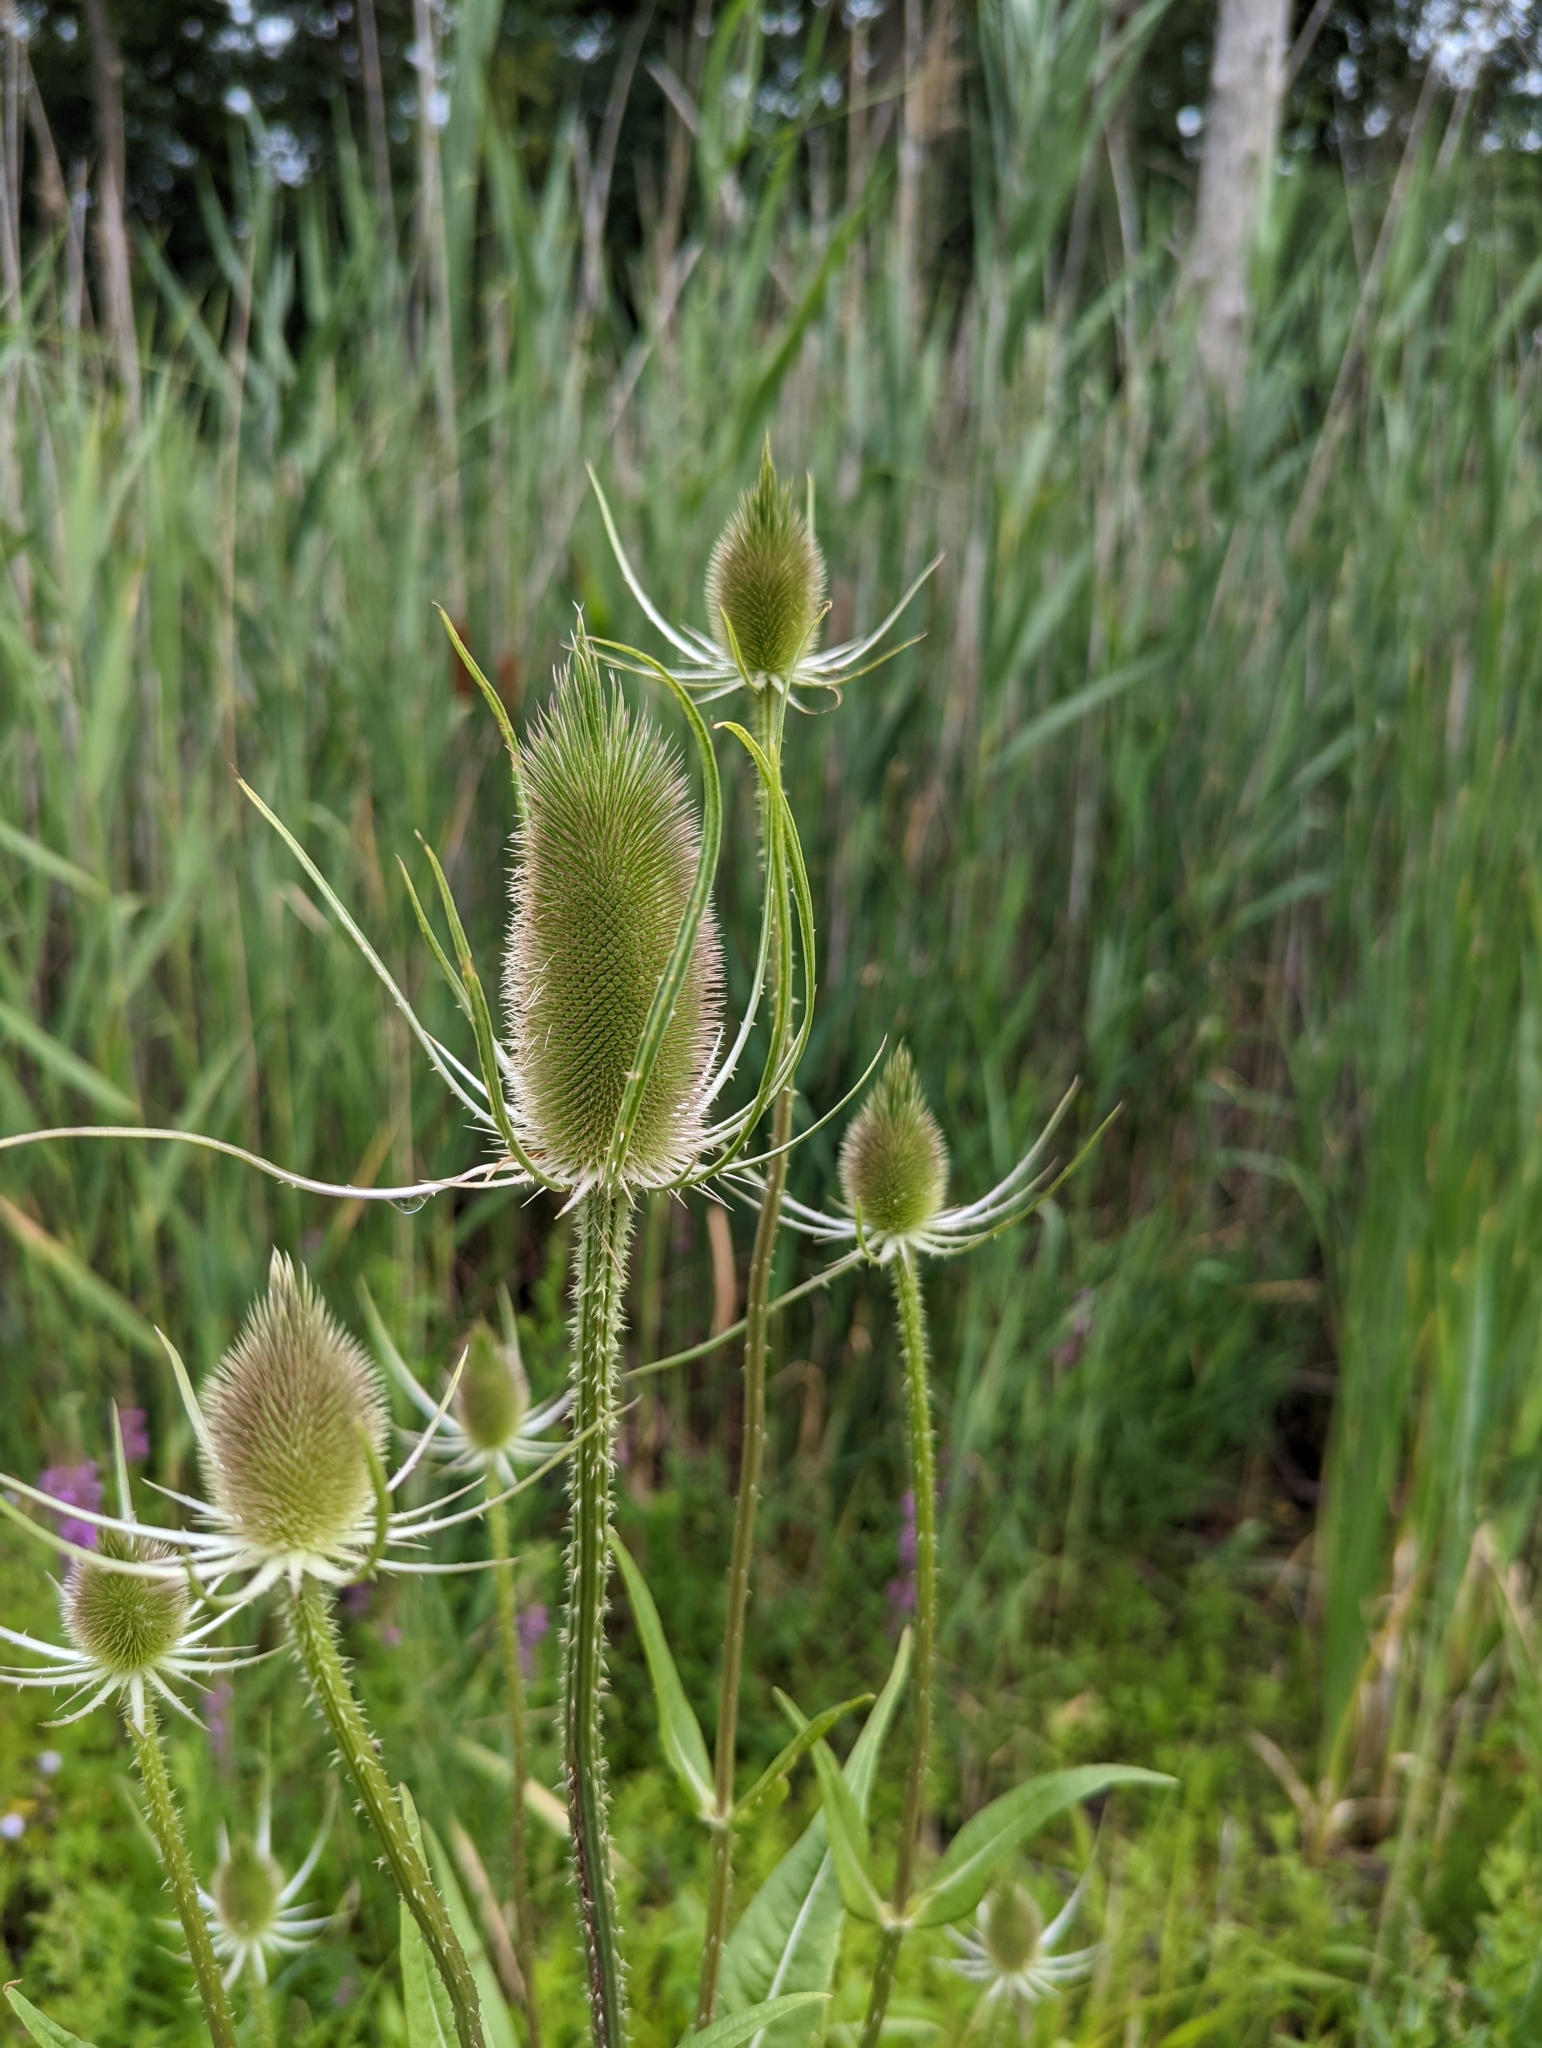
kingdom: Plantae
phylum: Tracheophyta
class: Magnoliopsida
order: Dipsacales
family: Caprifoliaceae
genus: Dipsacus
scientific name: Dipsacus fullonum
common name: Teasel
